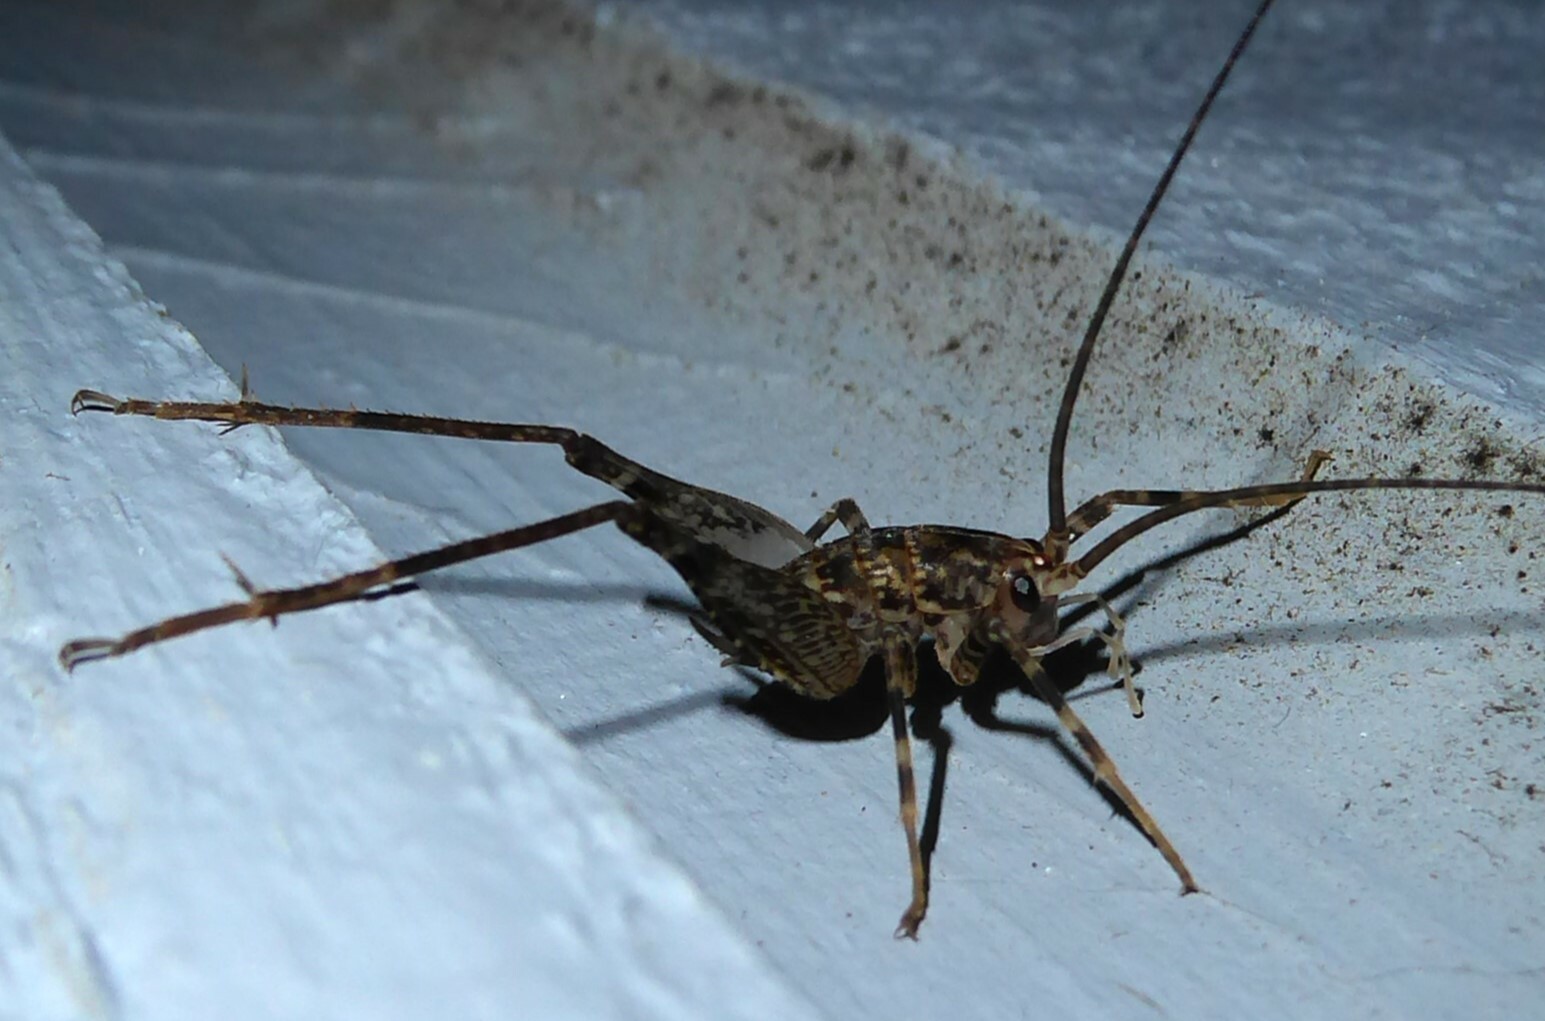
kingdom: Animalia
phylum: Arthropoda
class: Insecta
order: Orthoptera
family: Rhaphidophoridae
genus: Pleioplectron
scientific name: Pleioplectron simplex
